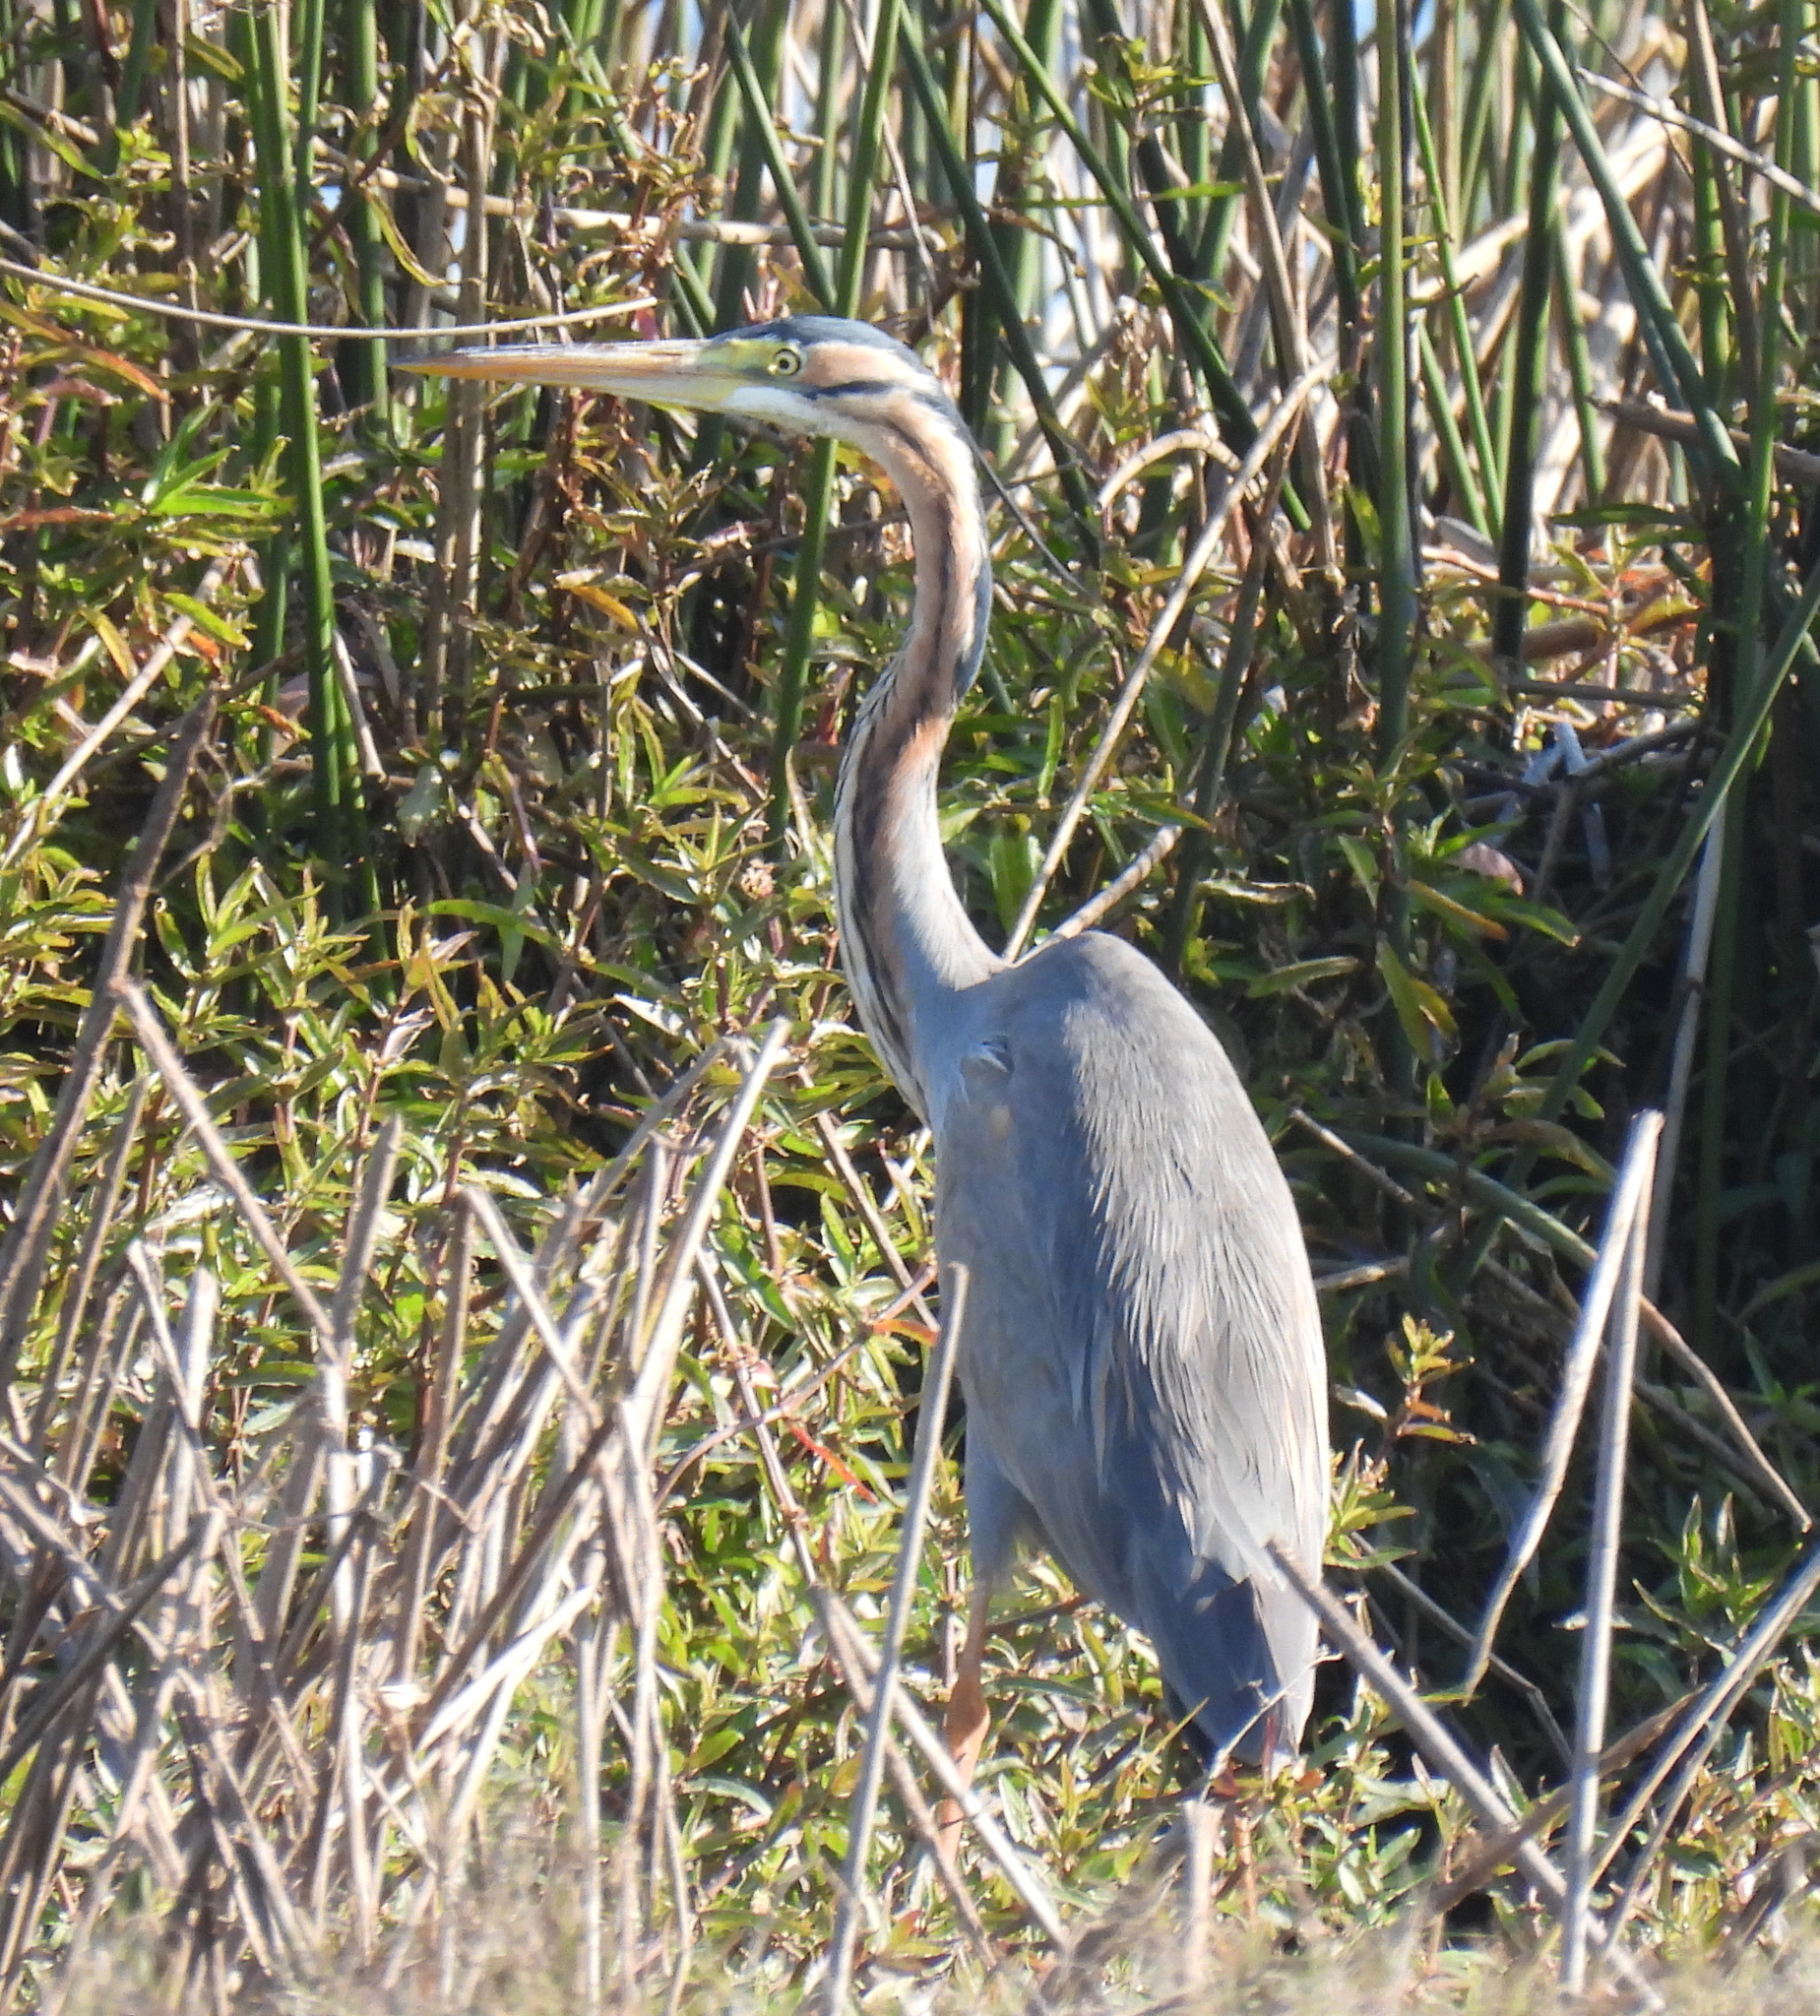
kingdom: Animalia
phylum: Chordata
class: Aves
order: Pelecaniformes
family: Ardeidae
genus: Ardea
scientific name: Ardea purpurea
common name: Purple heron
